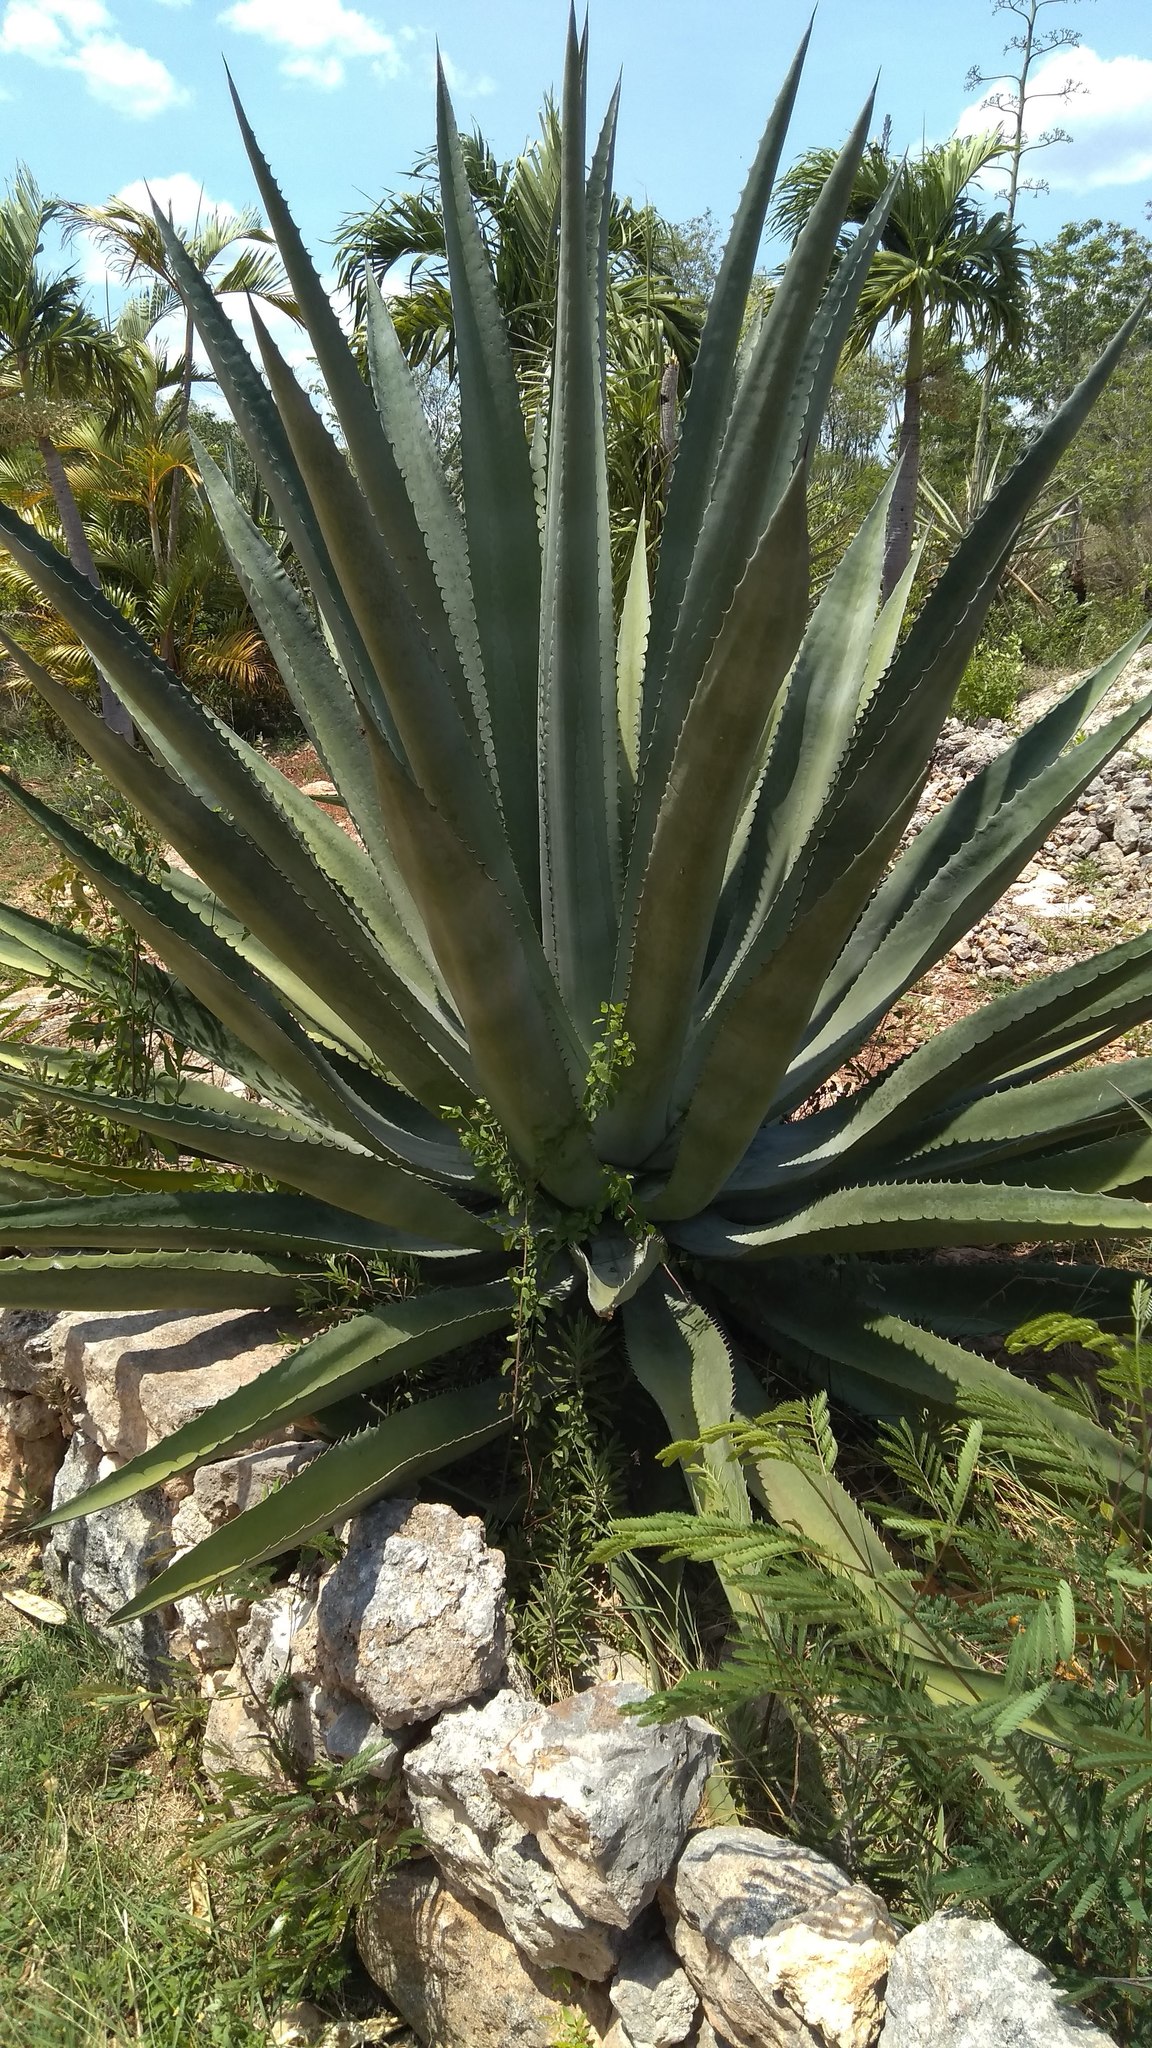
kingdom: Plantae
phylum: Tracheophyta
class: Liliopsida
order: Asparagales
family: Asparagaceae
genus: Agave
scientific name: Agave fourcroydes
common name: Henequen
